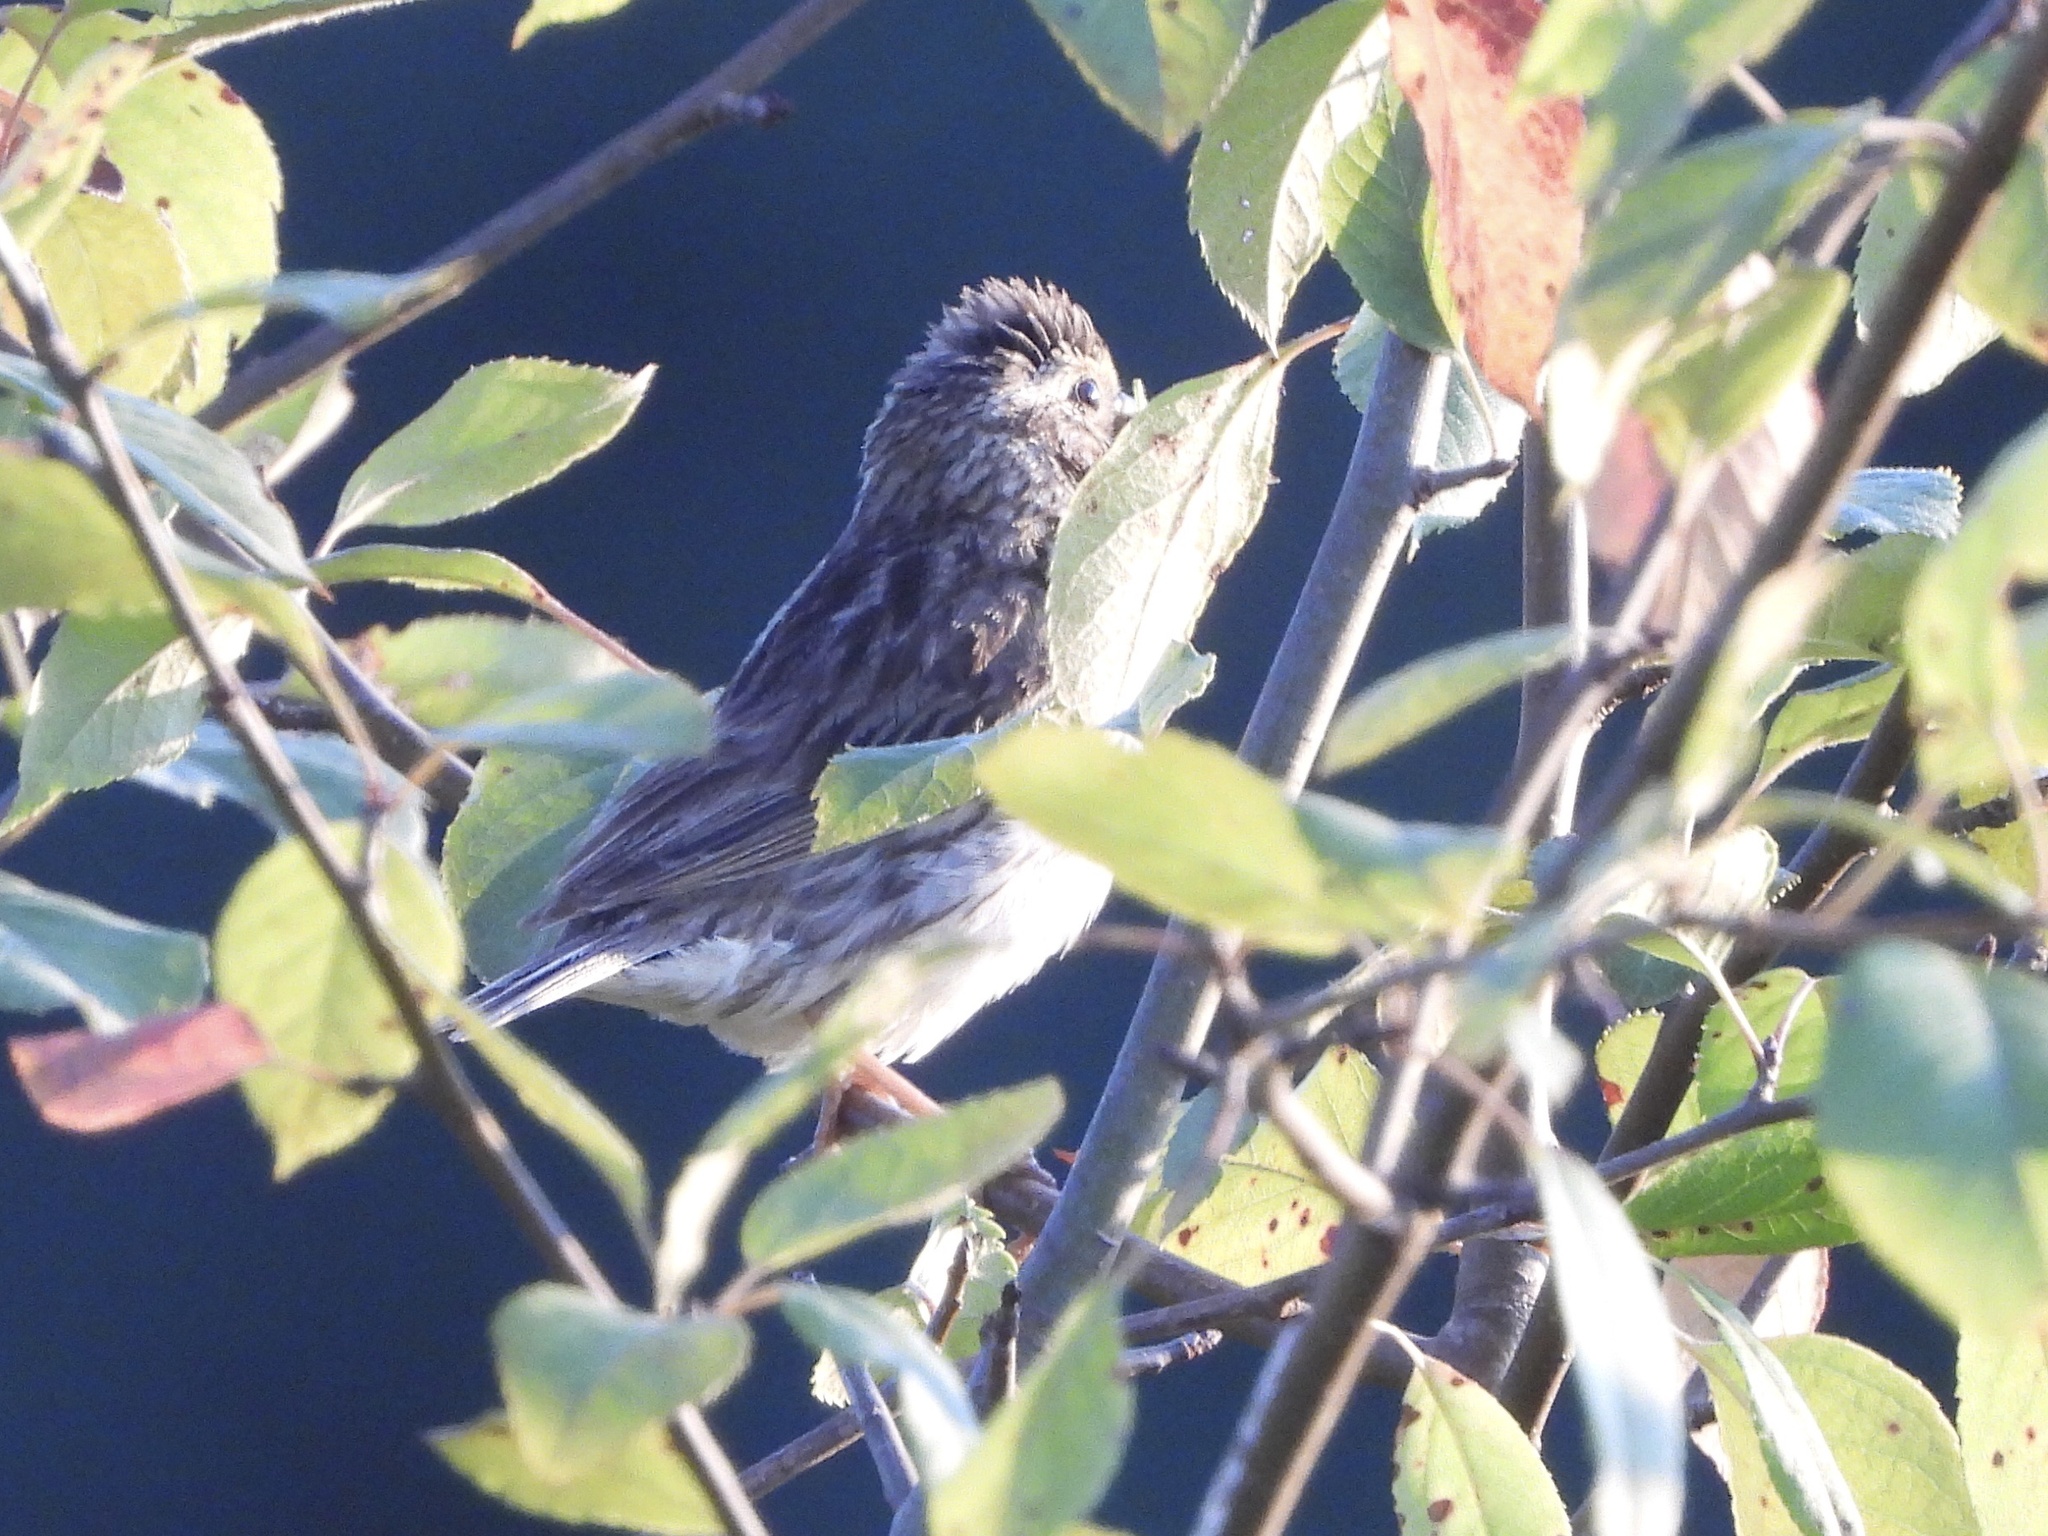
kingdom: Animalia
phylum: Chordata
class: Aves
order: Passeriformes
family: Passerellidae
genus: Passerculus
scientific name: Passerculus sandwichensis
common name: Savannah sparrow
